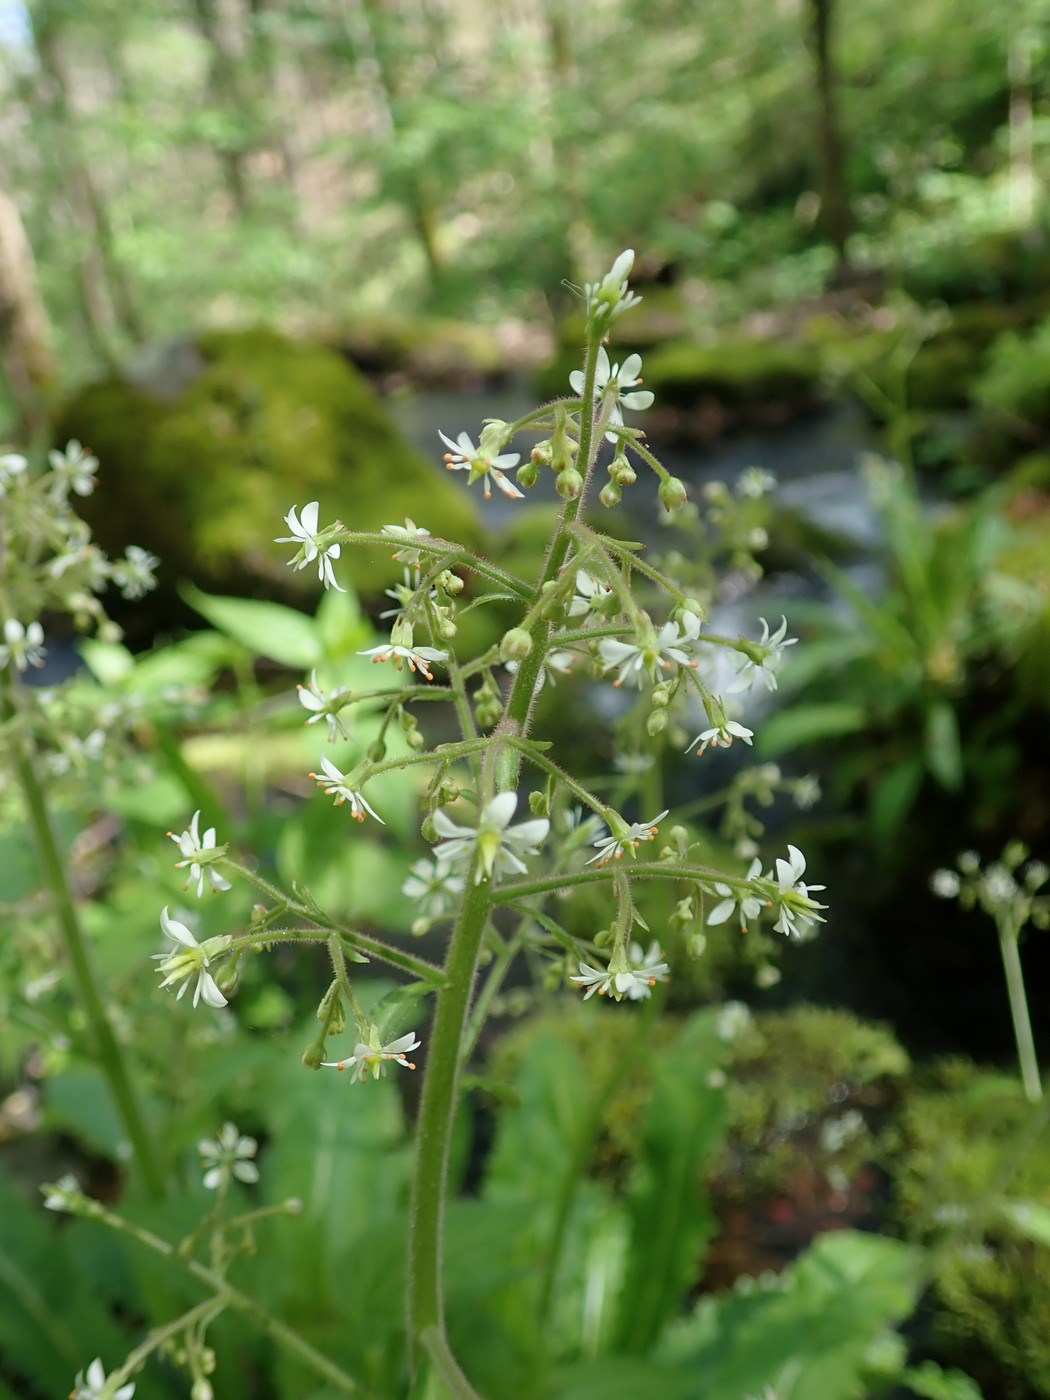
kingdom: Plantae
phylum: Tracheophyta
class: Magnoliopsida
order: Saxifragales
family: Saxifragaceae
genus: Micranthes
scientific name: Micranthes micranthidifolia
